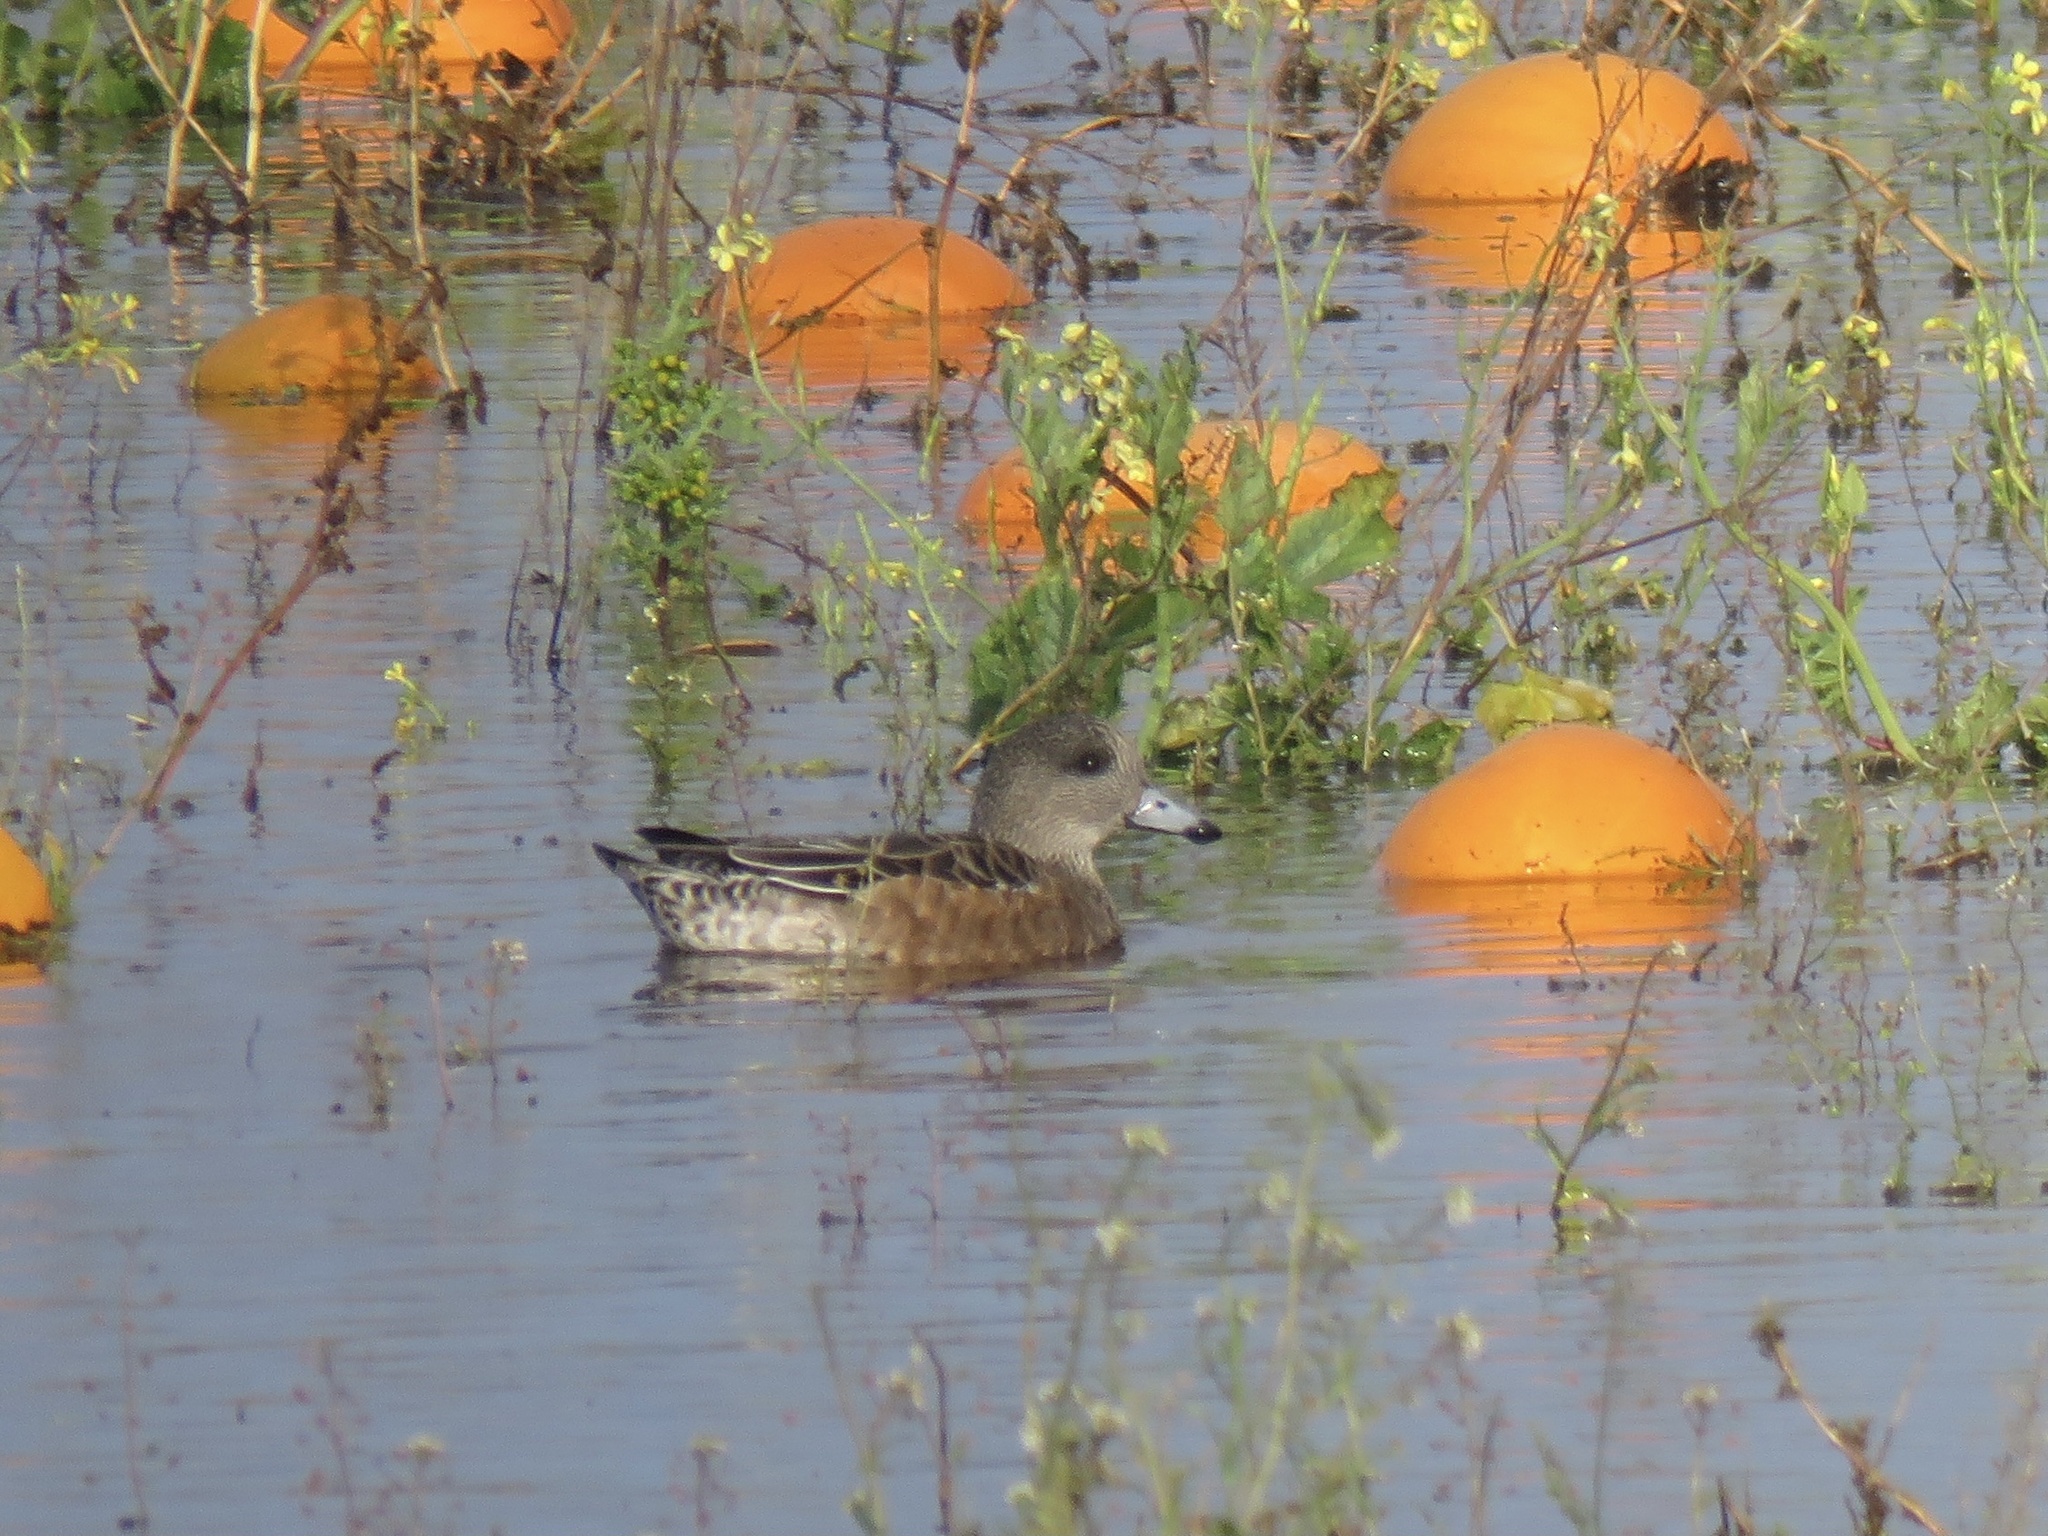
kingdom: Animalia
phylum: Chordata
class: Aves
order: Anseriformes
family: Anatidae
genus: Mareca
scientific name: Mareca americana
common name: American wigeon
